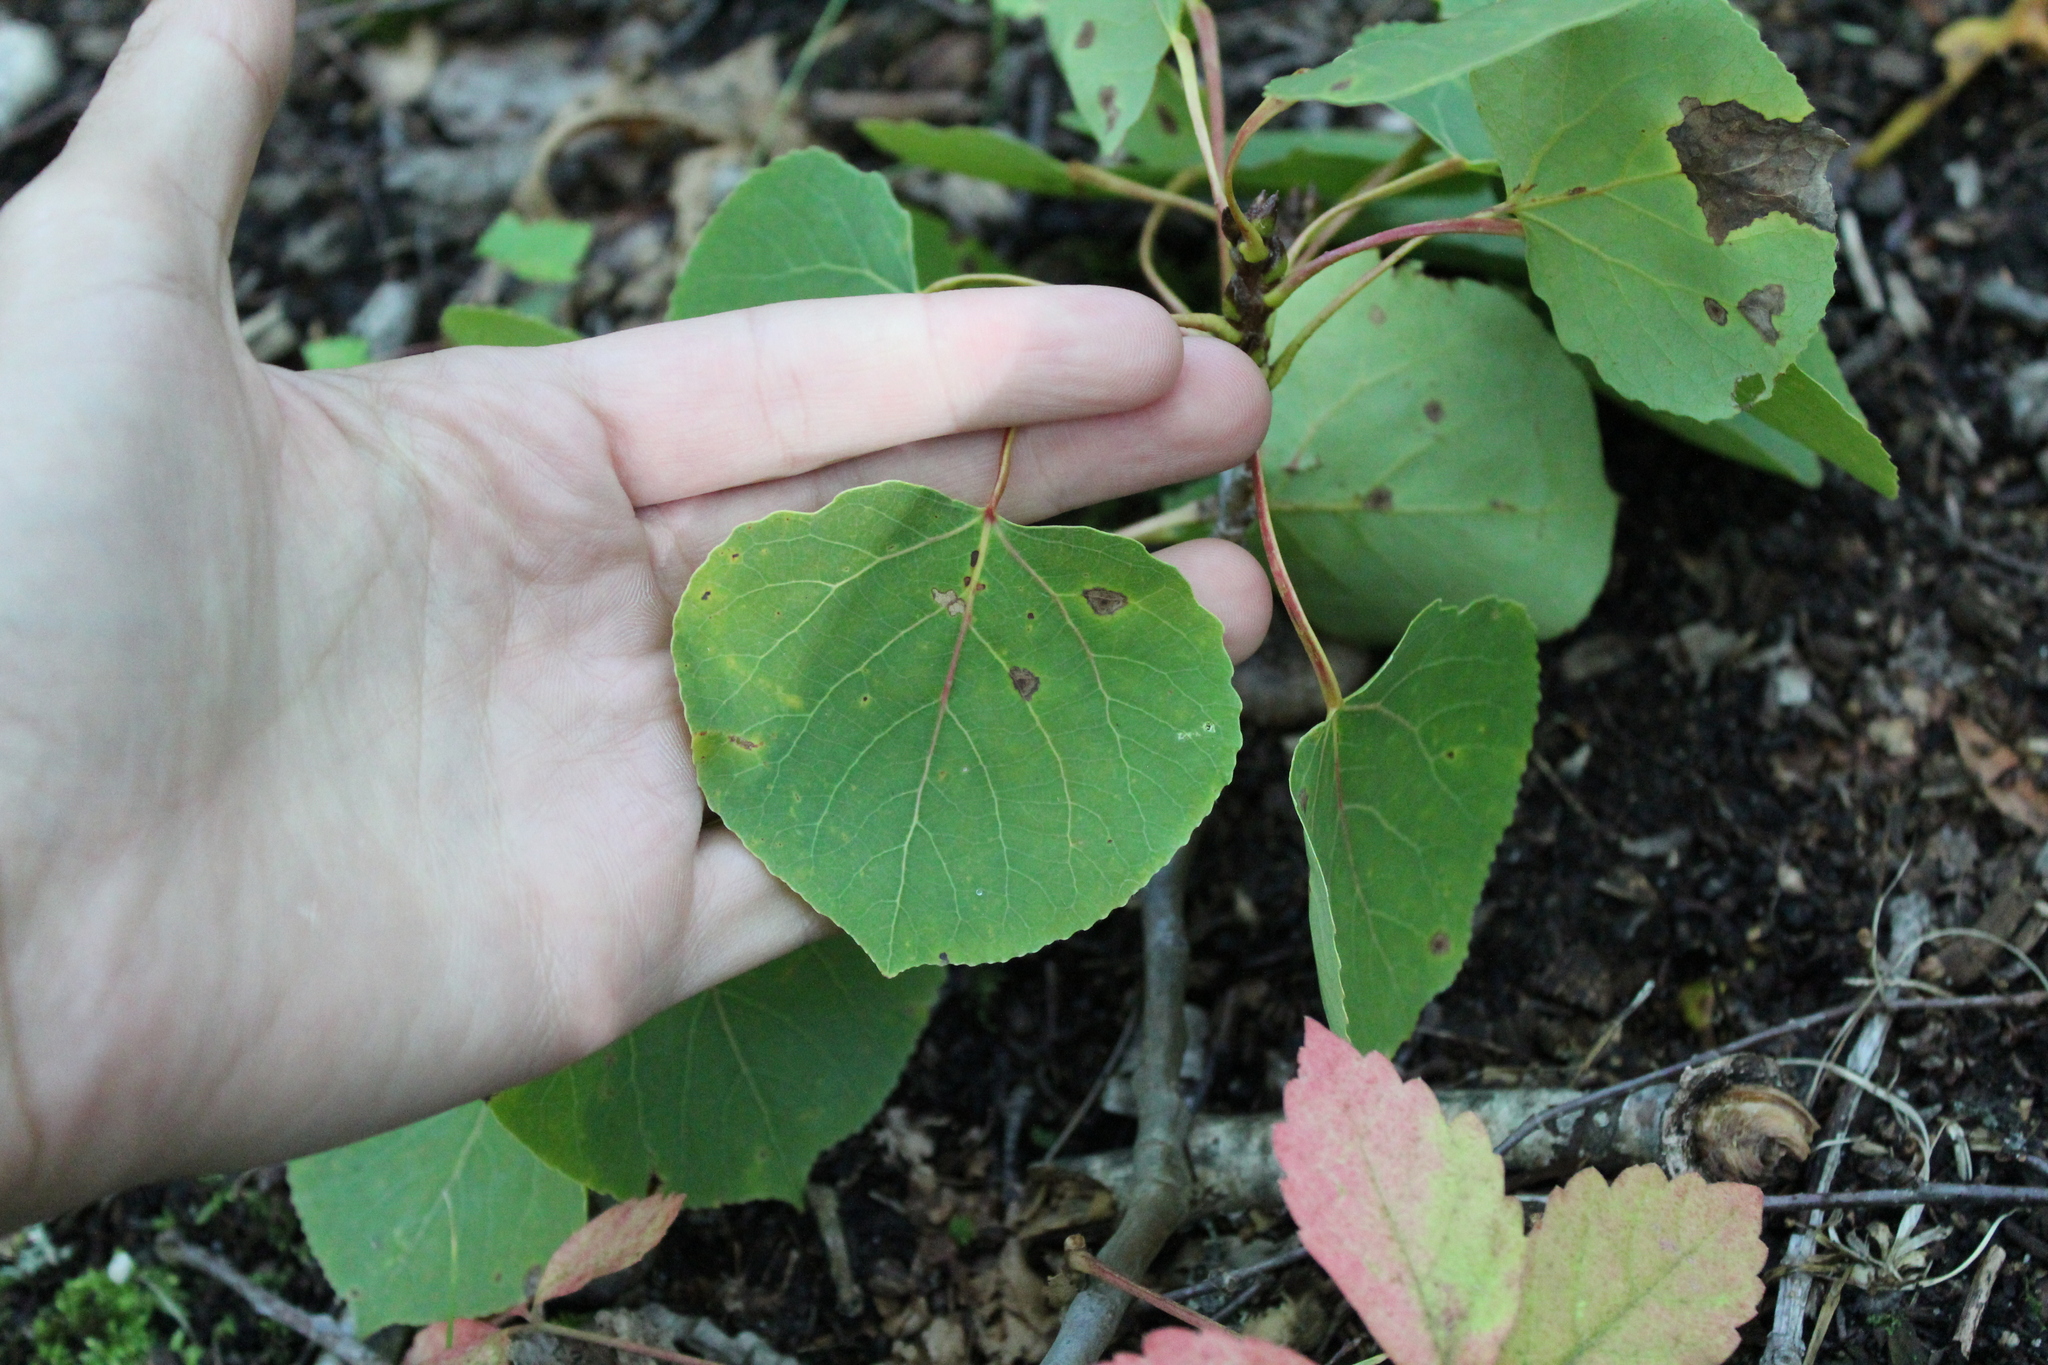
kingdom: Plantae
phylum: Tracheophyta
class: Magnoliopsida
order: Malpighiales
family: Salicaceae
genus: Populus
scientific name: Populus tremuloides
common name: Quaking aspen
